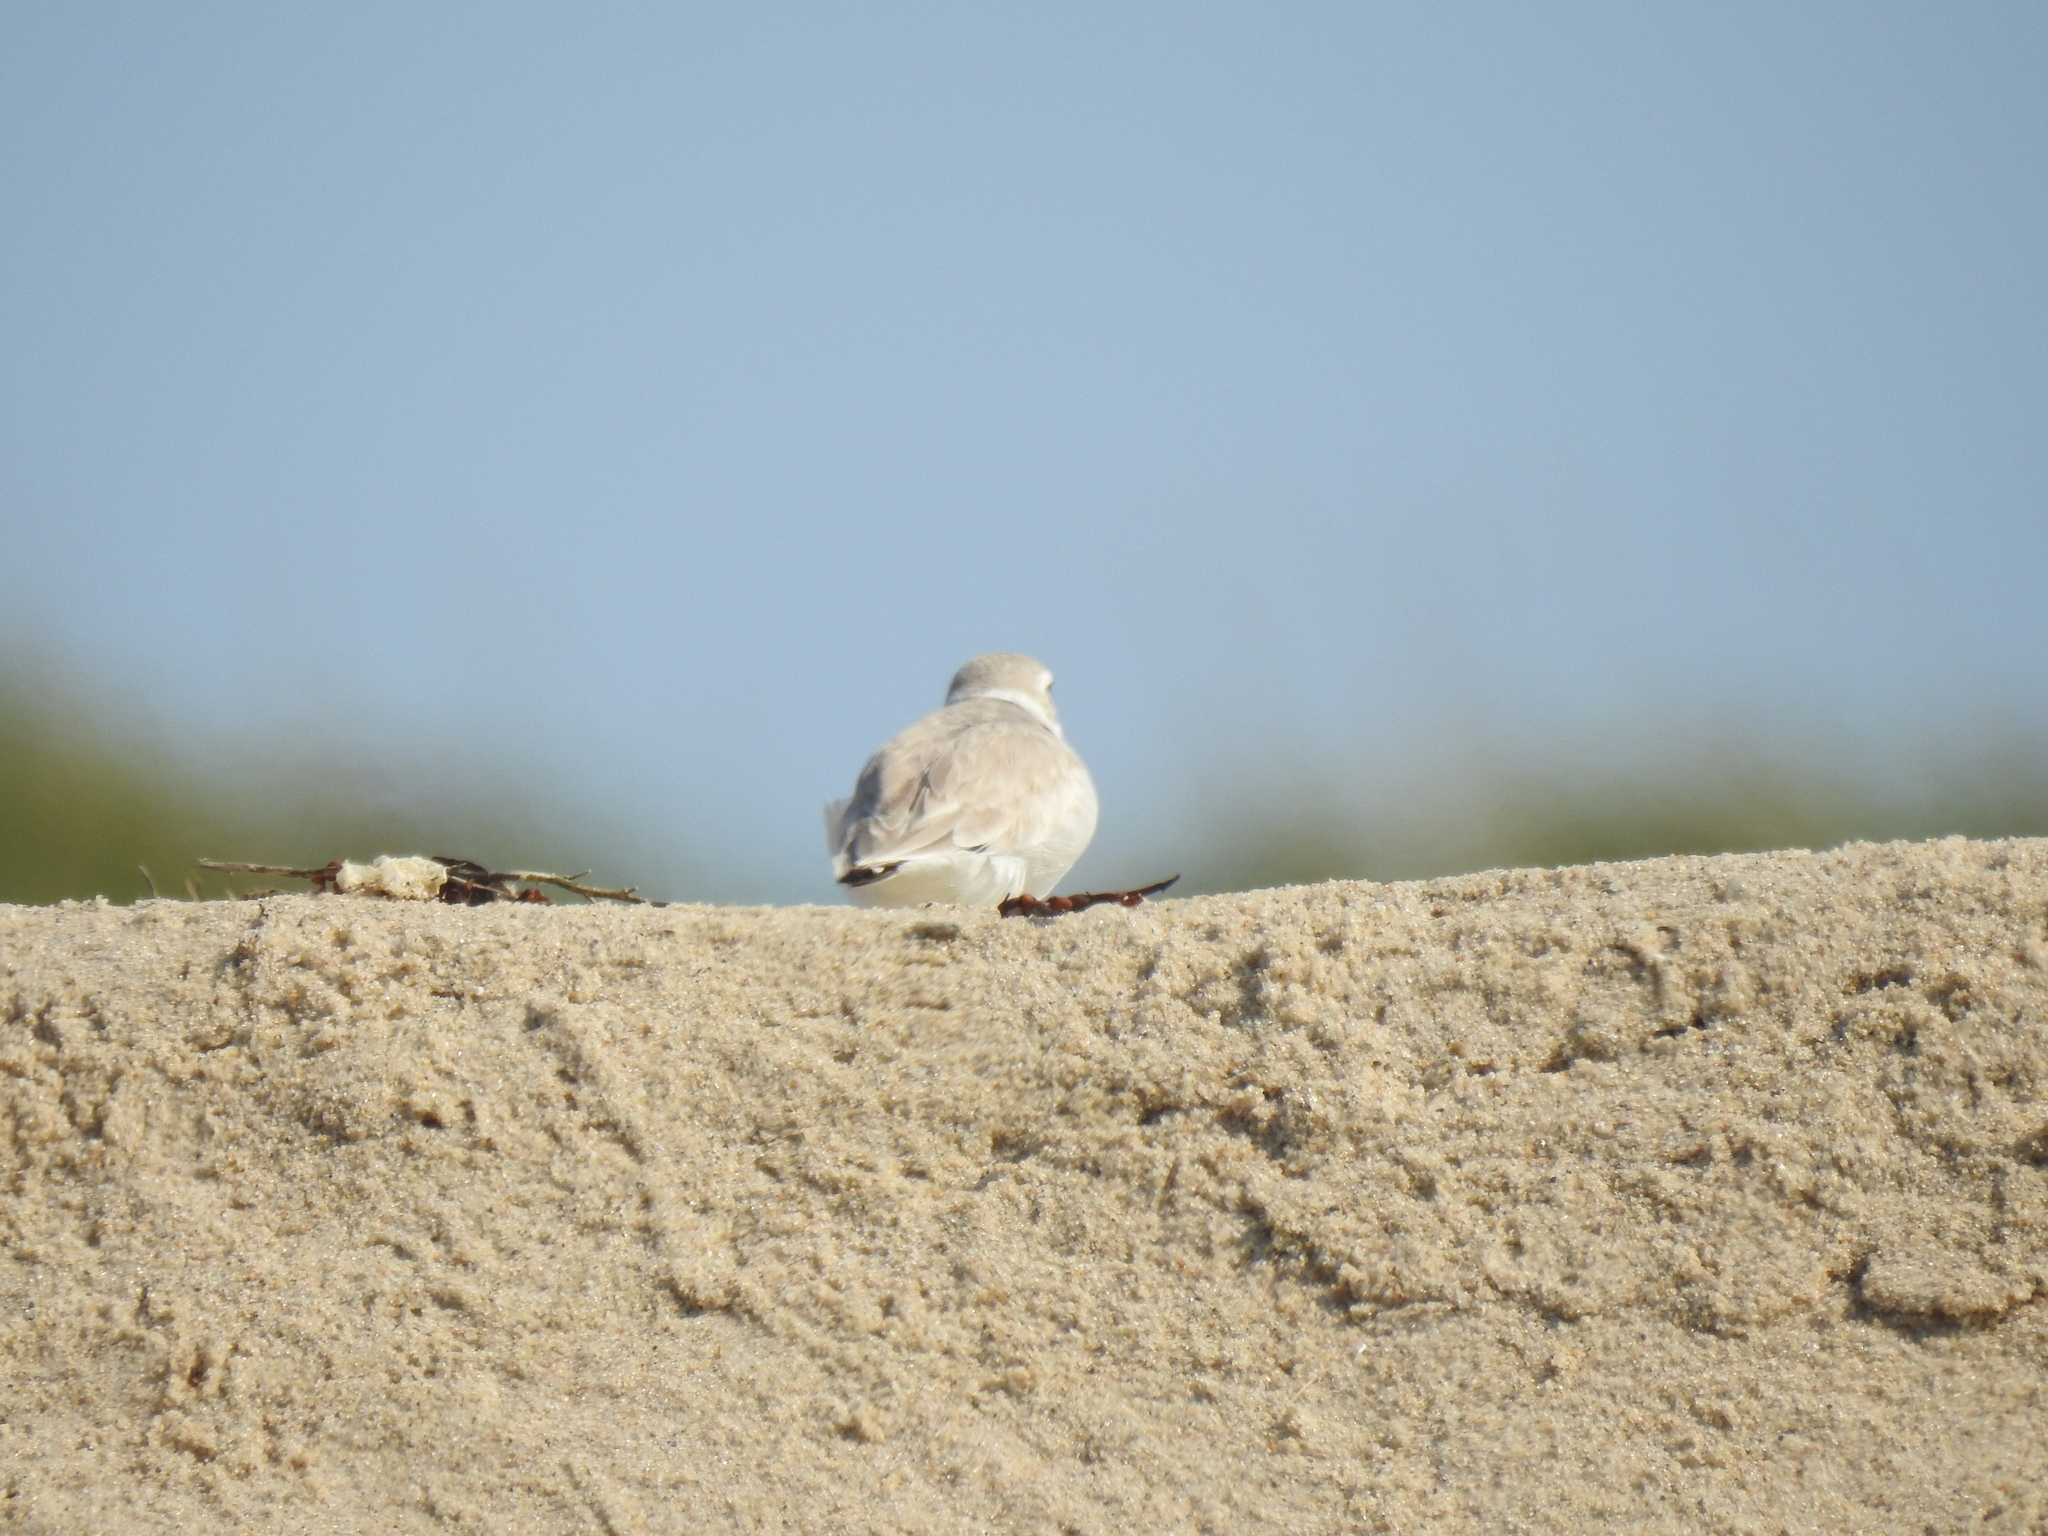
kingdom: Animalia
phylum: Chordata
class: Aves
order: Charadriiformes
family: Charadriidae
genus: Charadrius
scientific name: Charadrius melodus
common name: Piping plover
